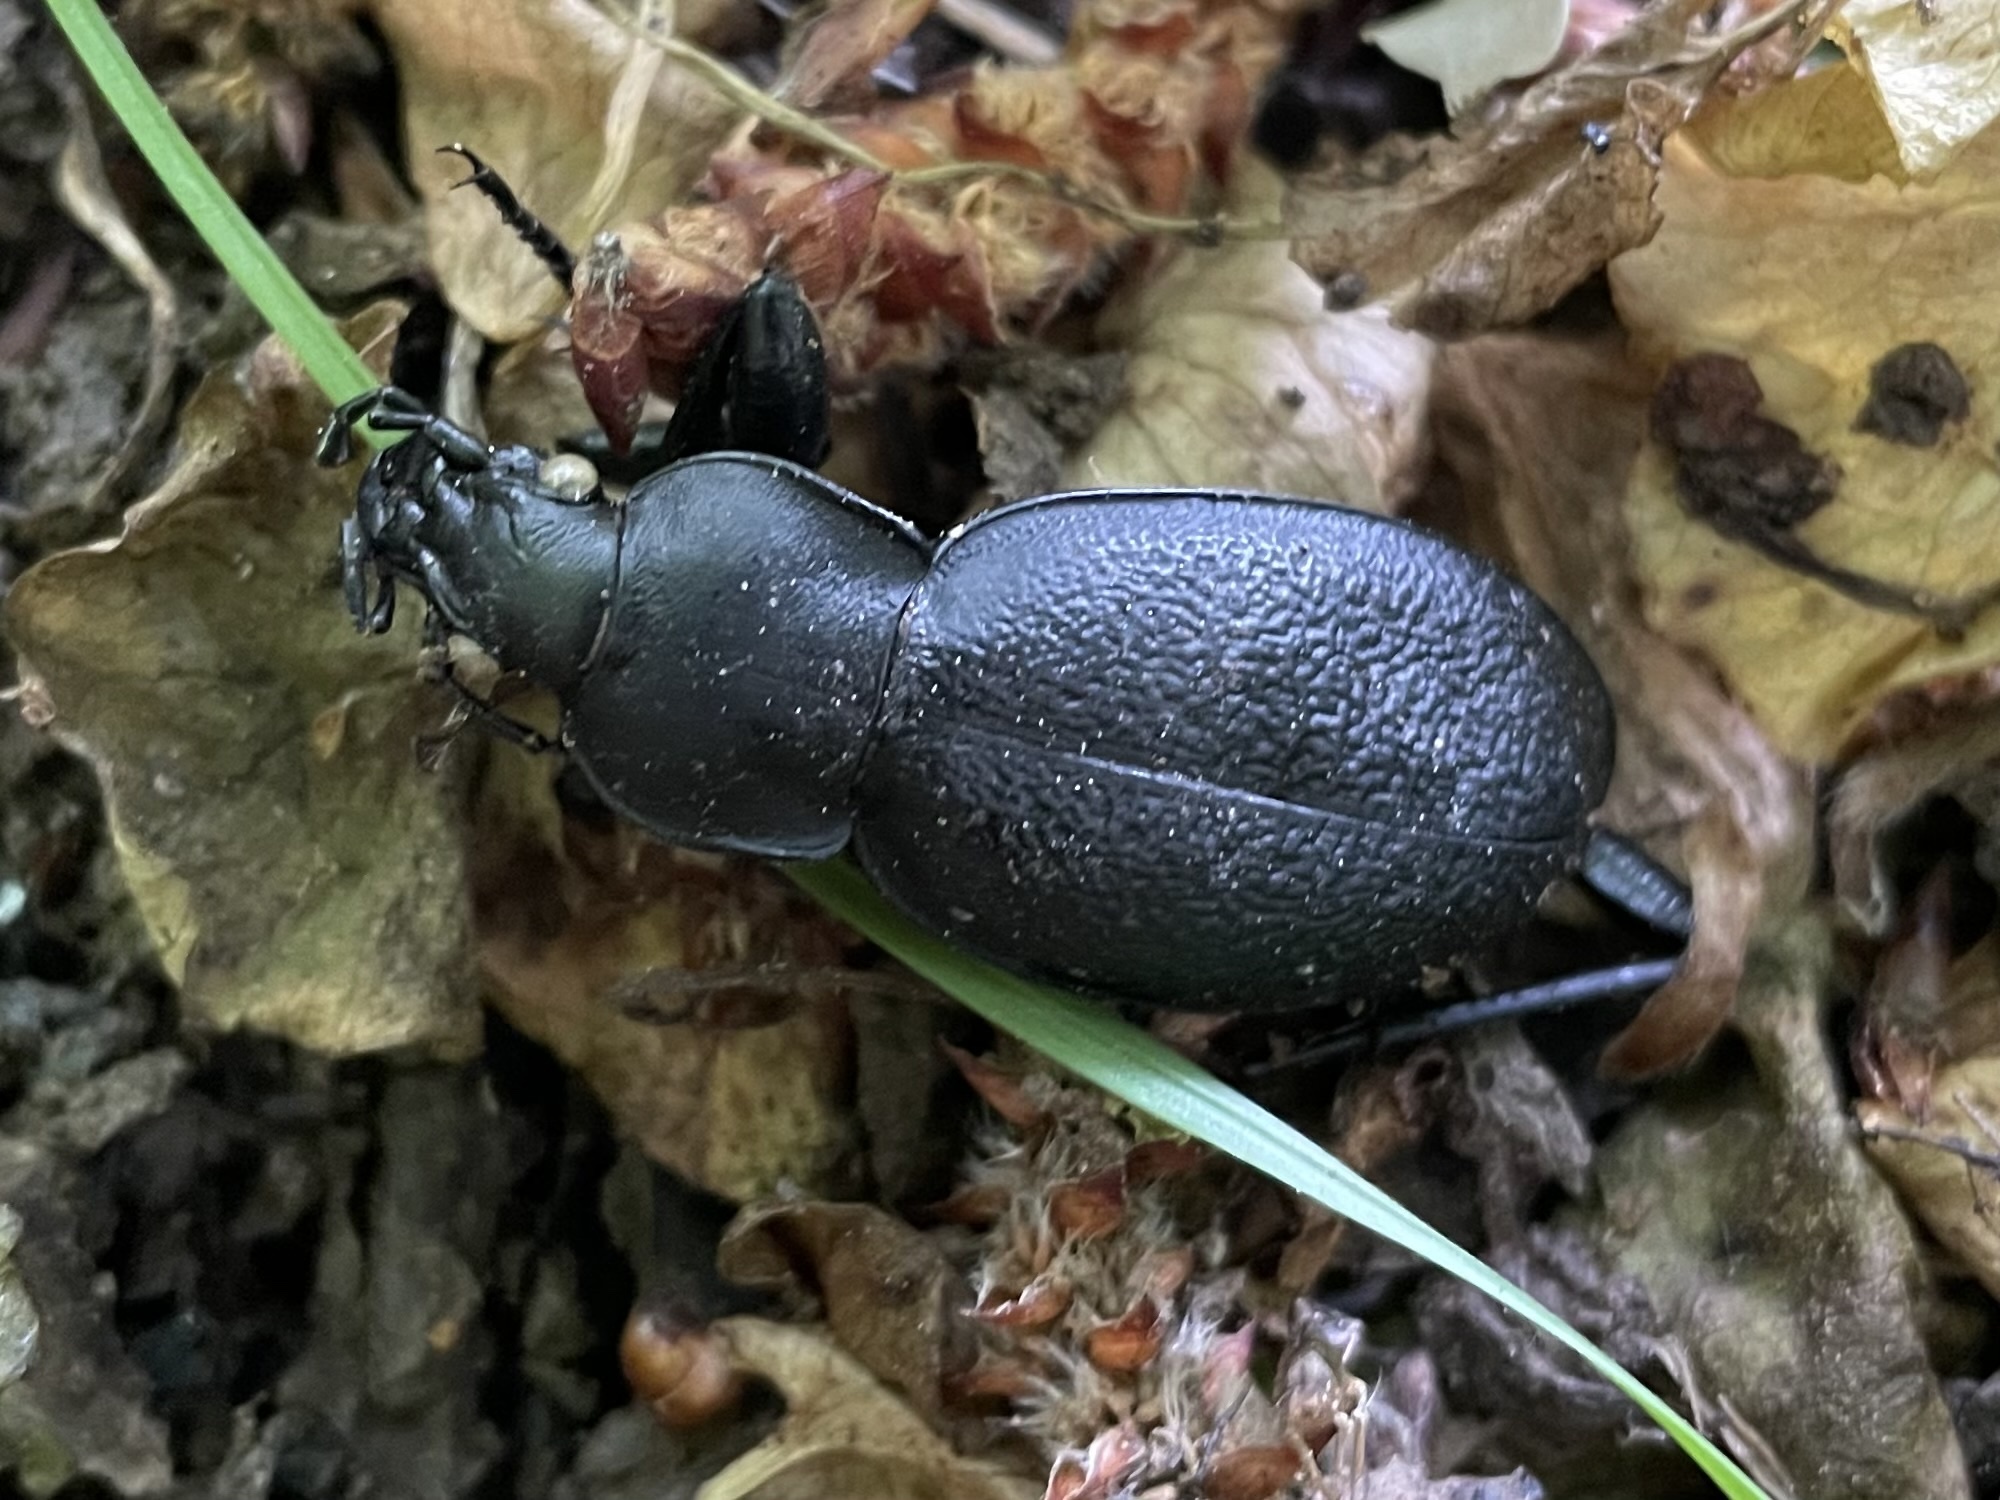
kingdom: Animalia
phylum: Arthropoda
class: Insecta
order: Coleoptera
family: Carabidae
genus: Carabus
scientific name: Carabus coriaceus
